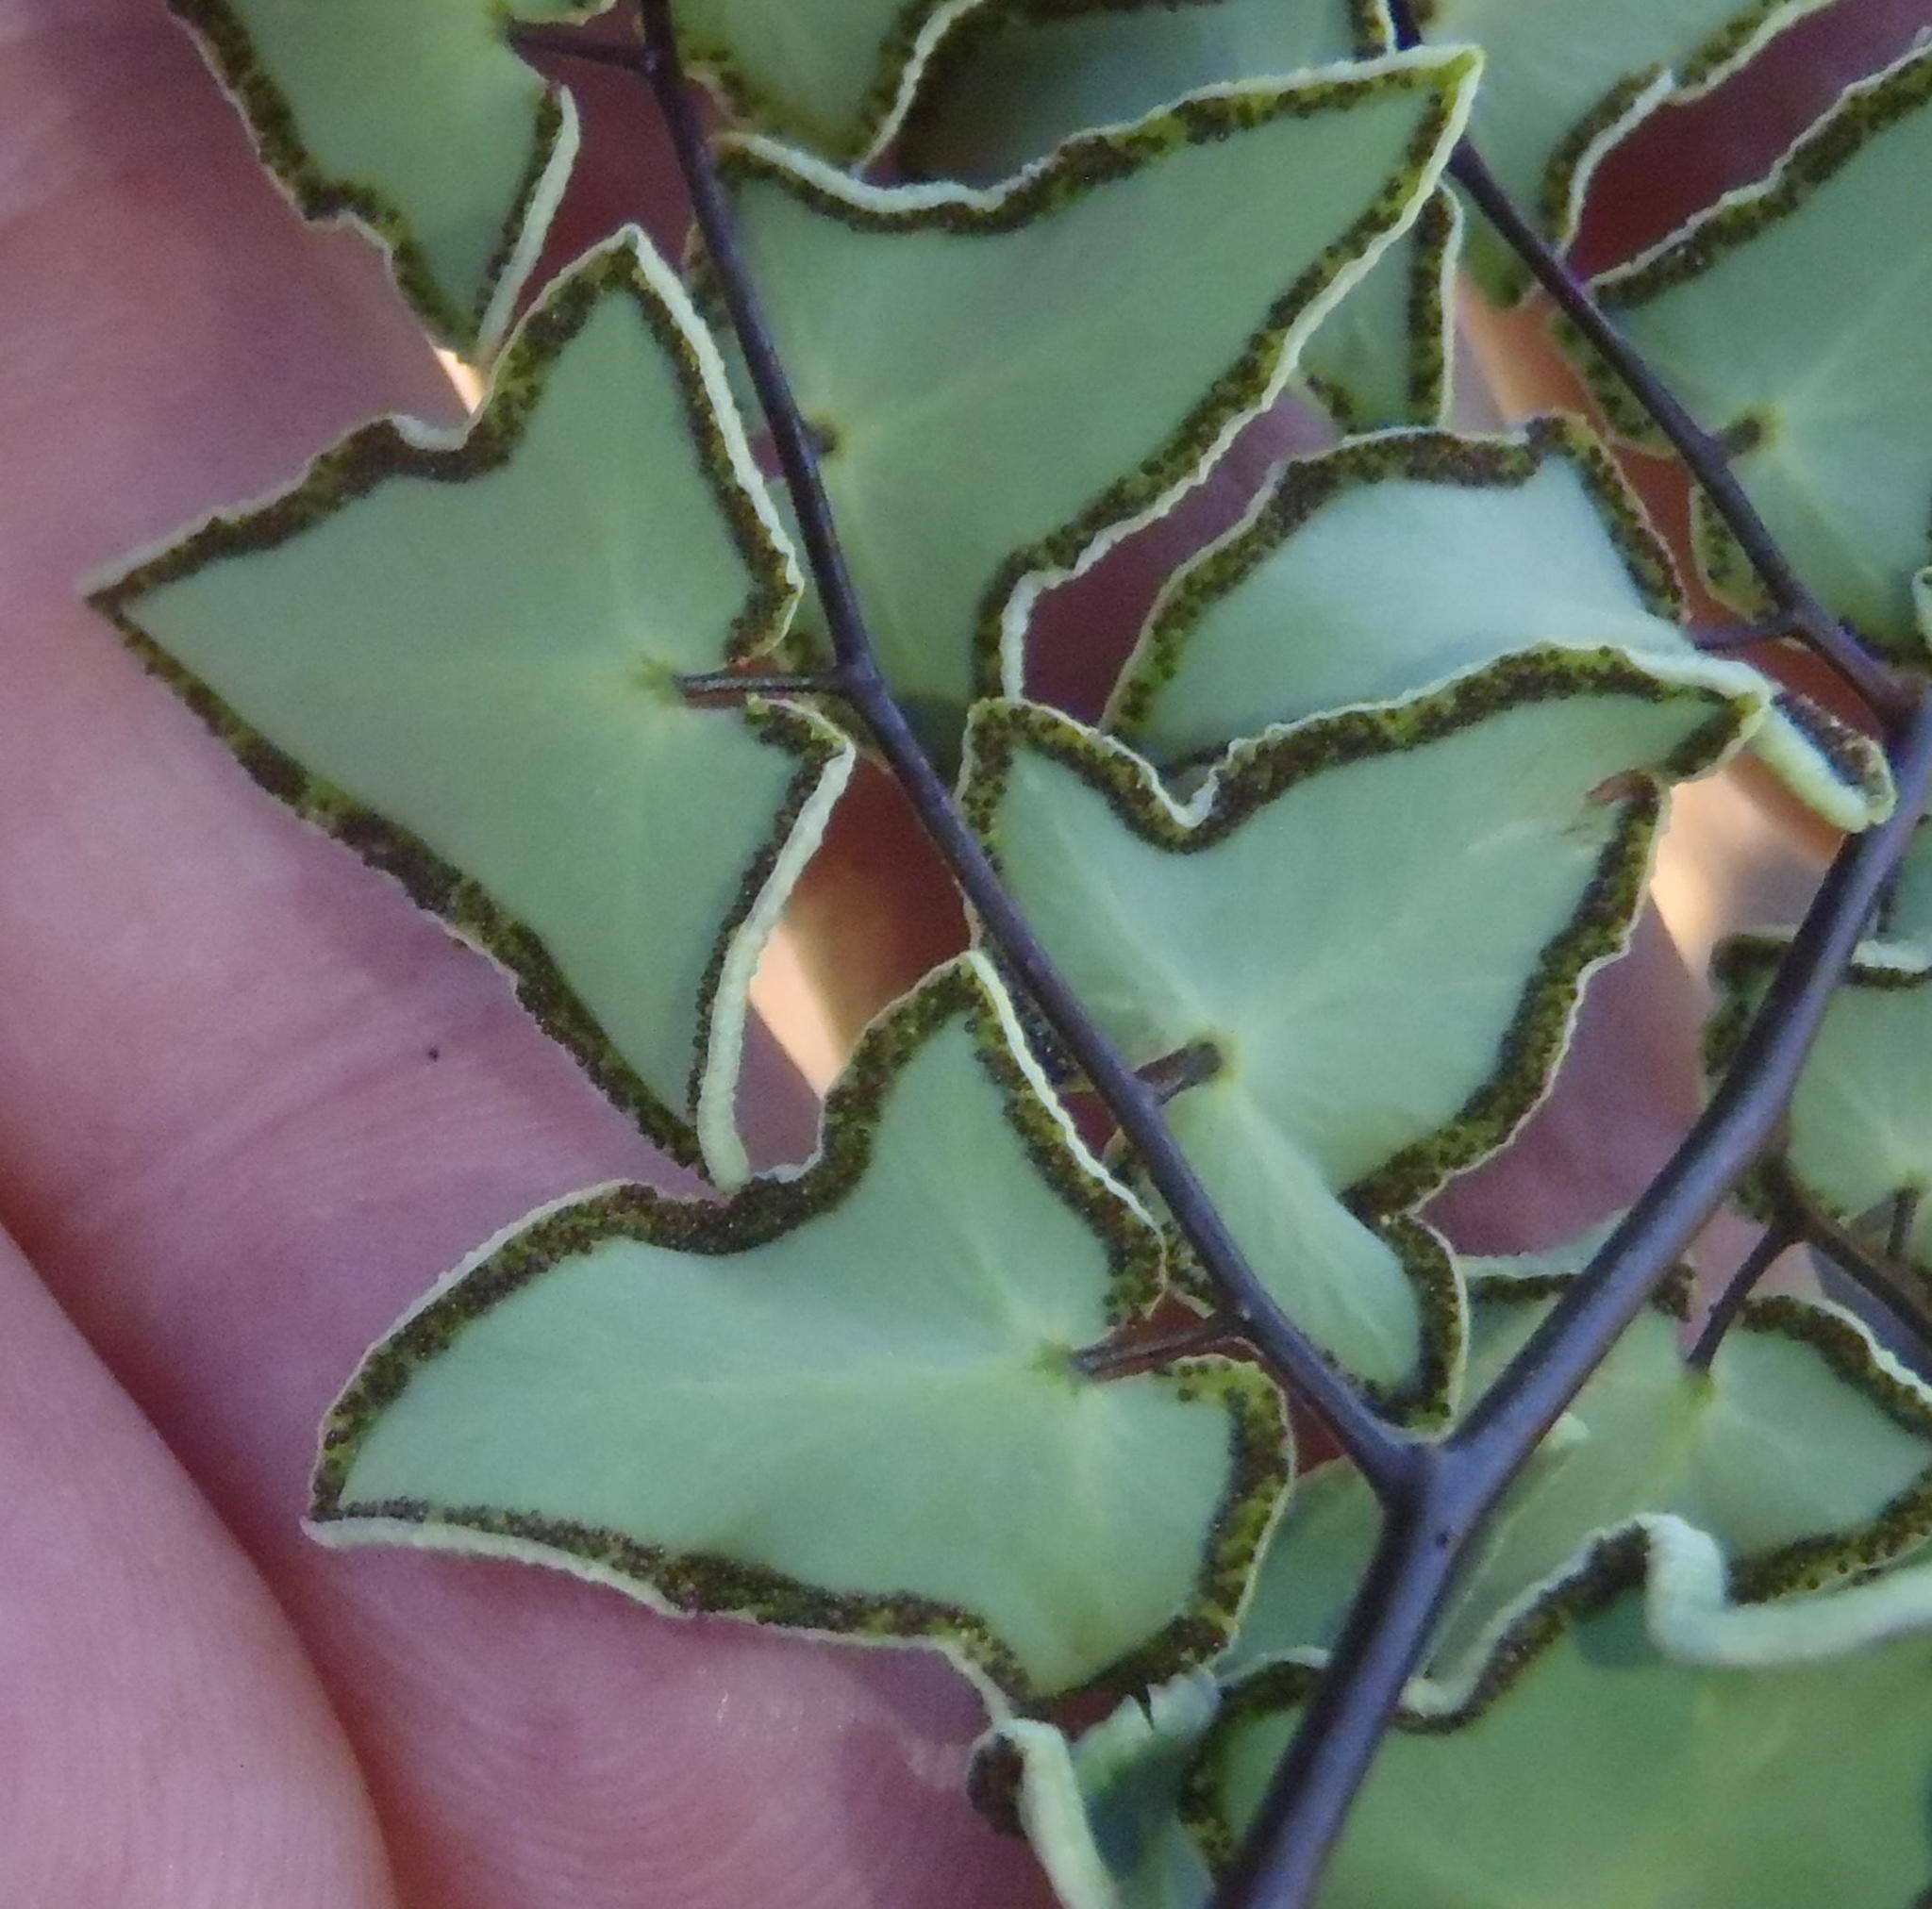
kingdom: Plantae
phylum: Tracheophyta
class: Polypodiopsida
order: Polypodiales
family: Pteridaceae
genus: Pellaea
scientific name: Pellaea calomelanos
